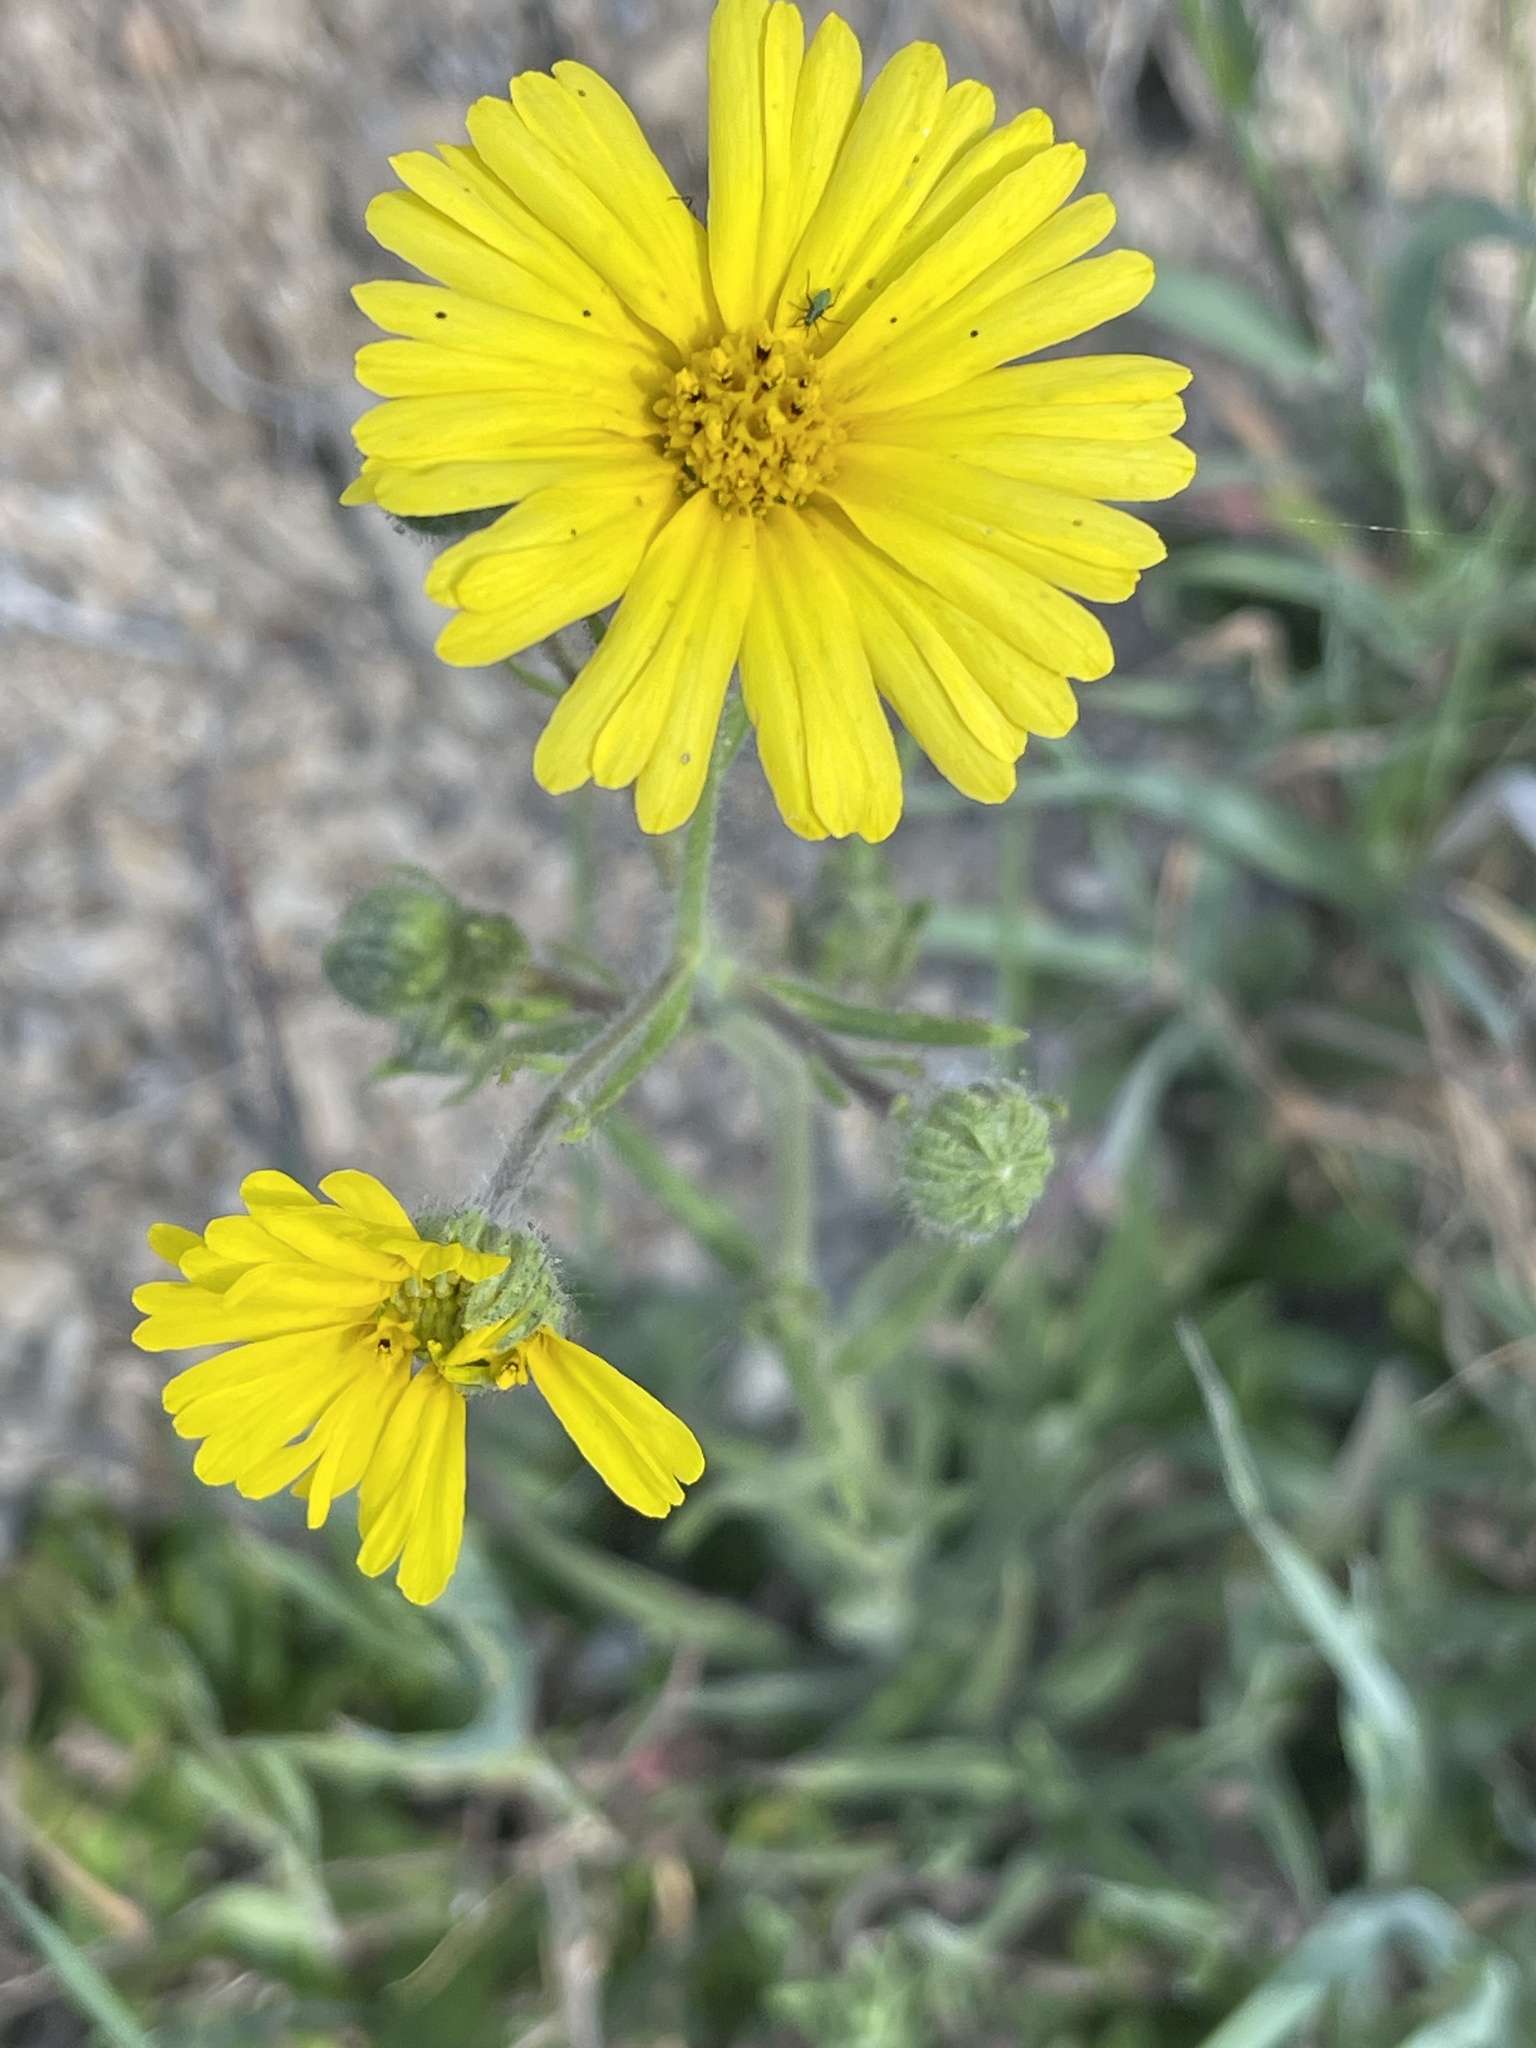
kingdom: Plantae
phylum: Tracheophyta
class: Magnoliopsida
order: Asterales
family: Asteraceae
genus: Madia
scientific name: Madia elegans
